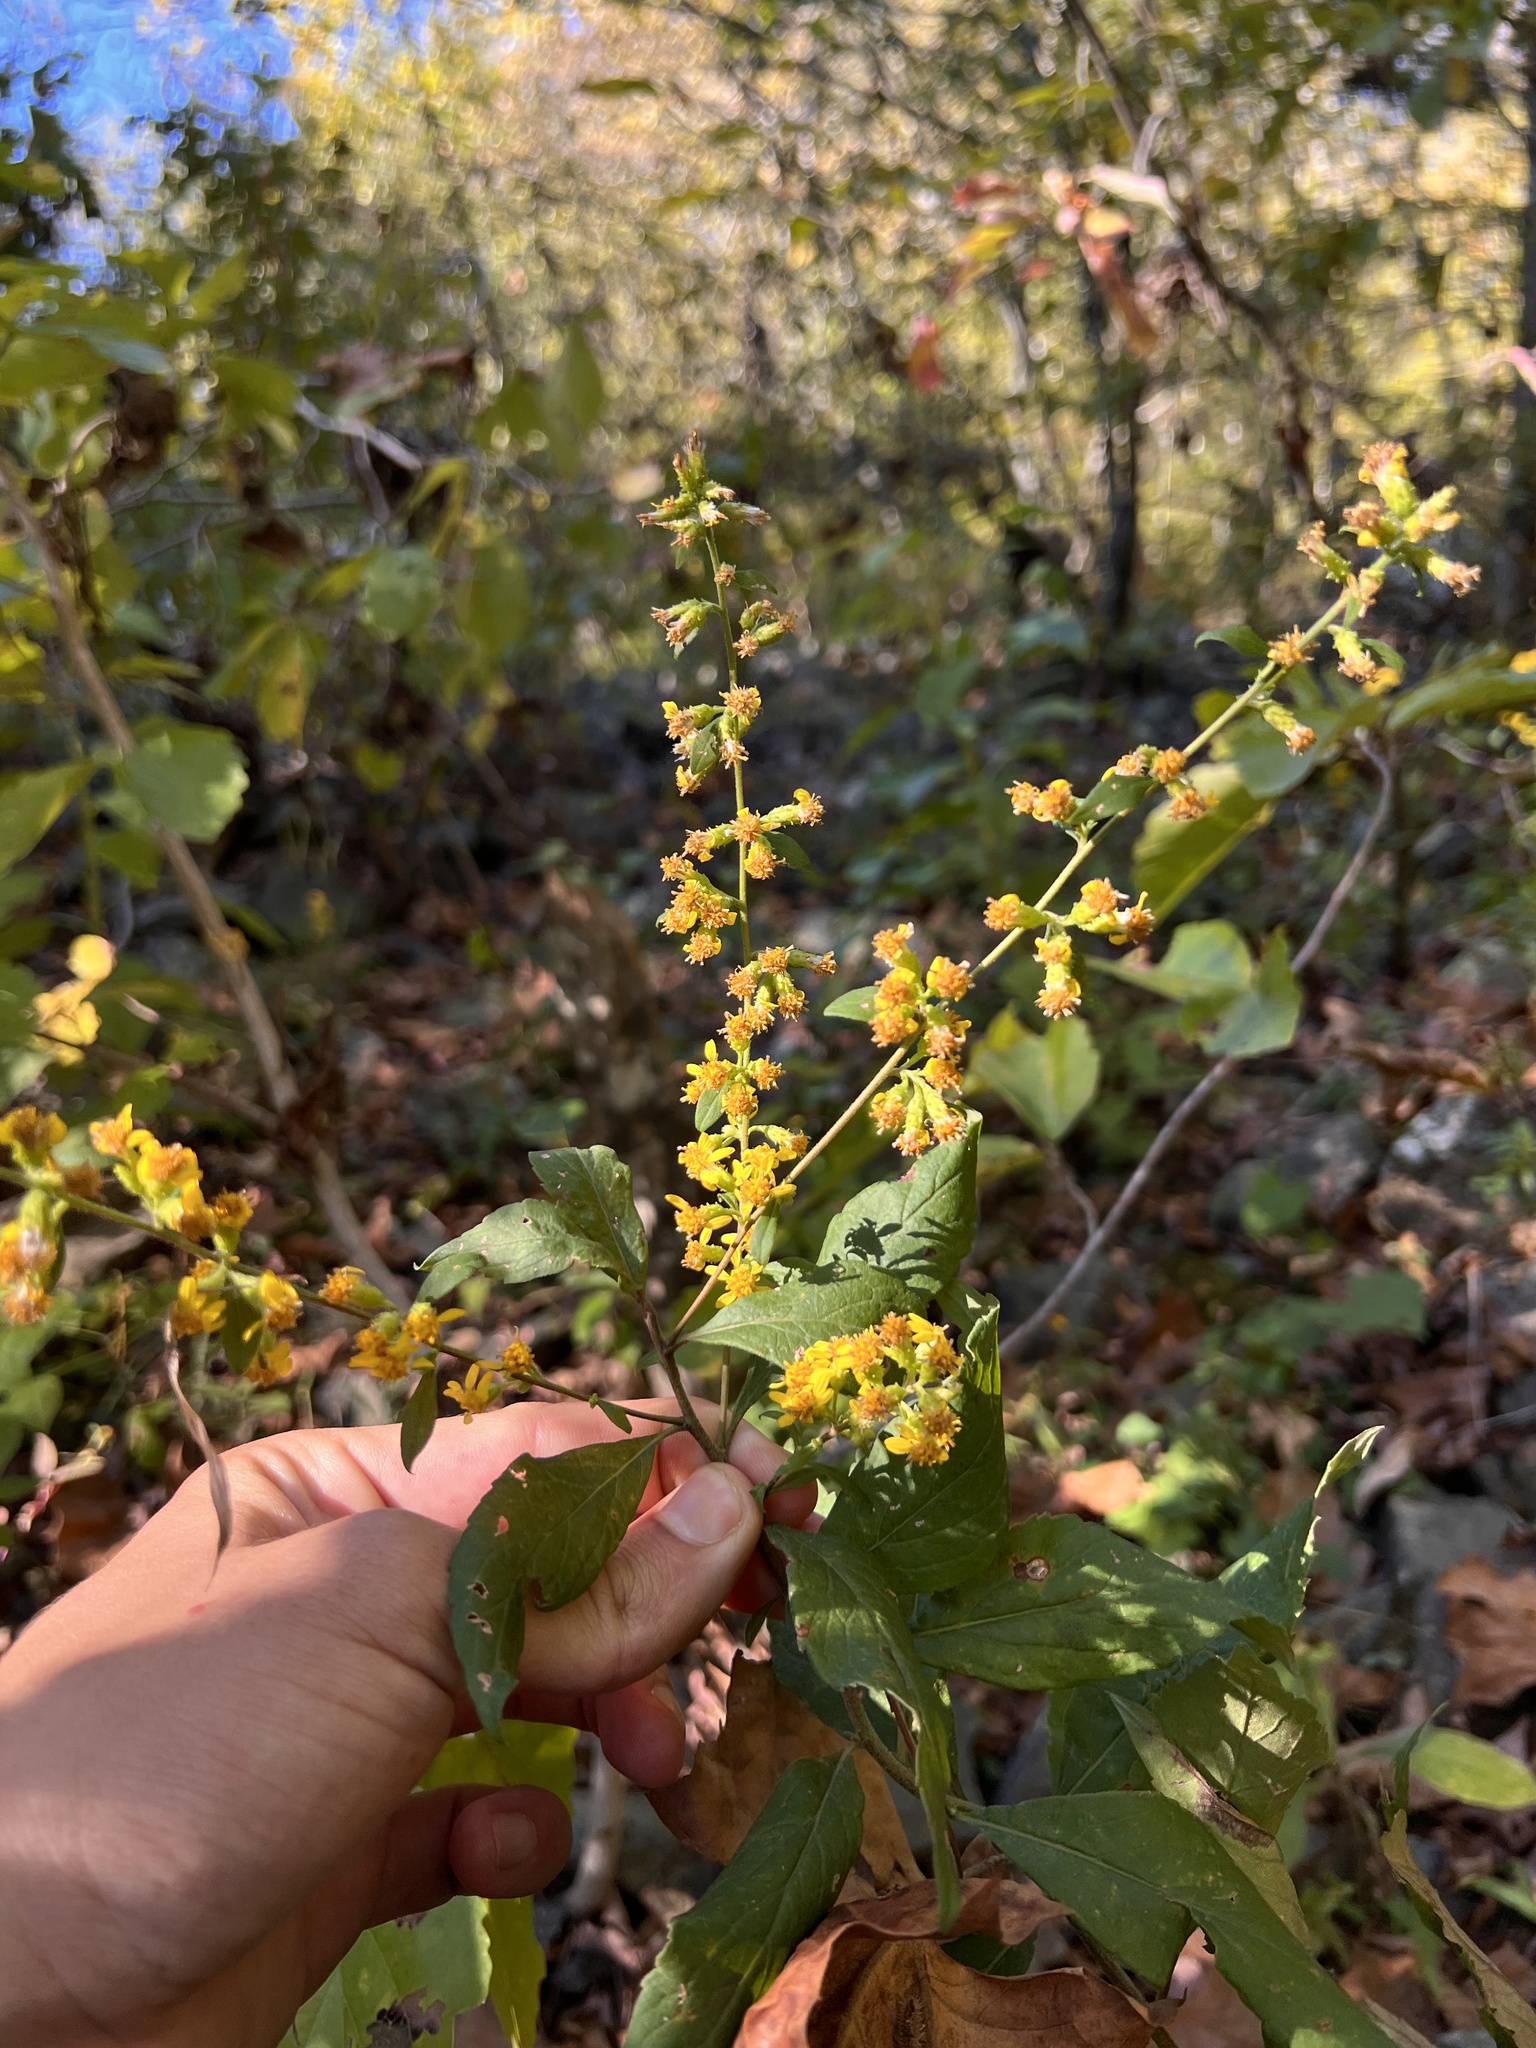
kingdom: Plantae
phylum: Tracheophyta
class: Magnoliopsida
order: Asterales
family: Asteraceae
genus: Solidago
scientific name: Solidago buckleyi
